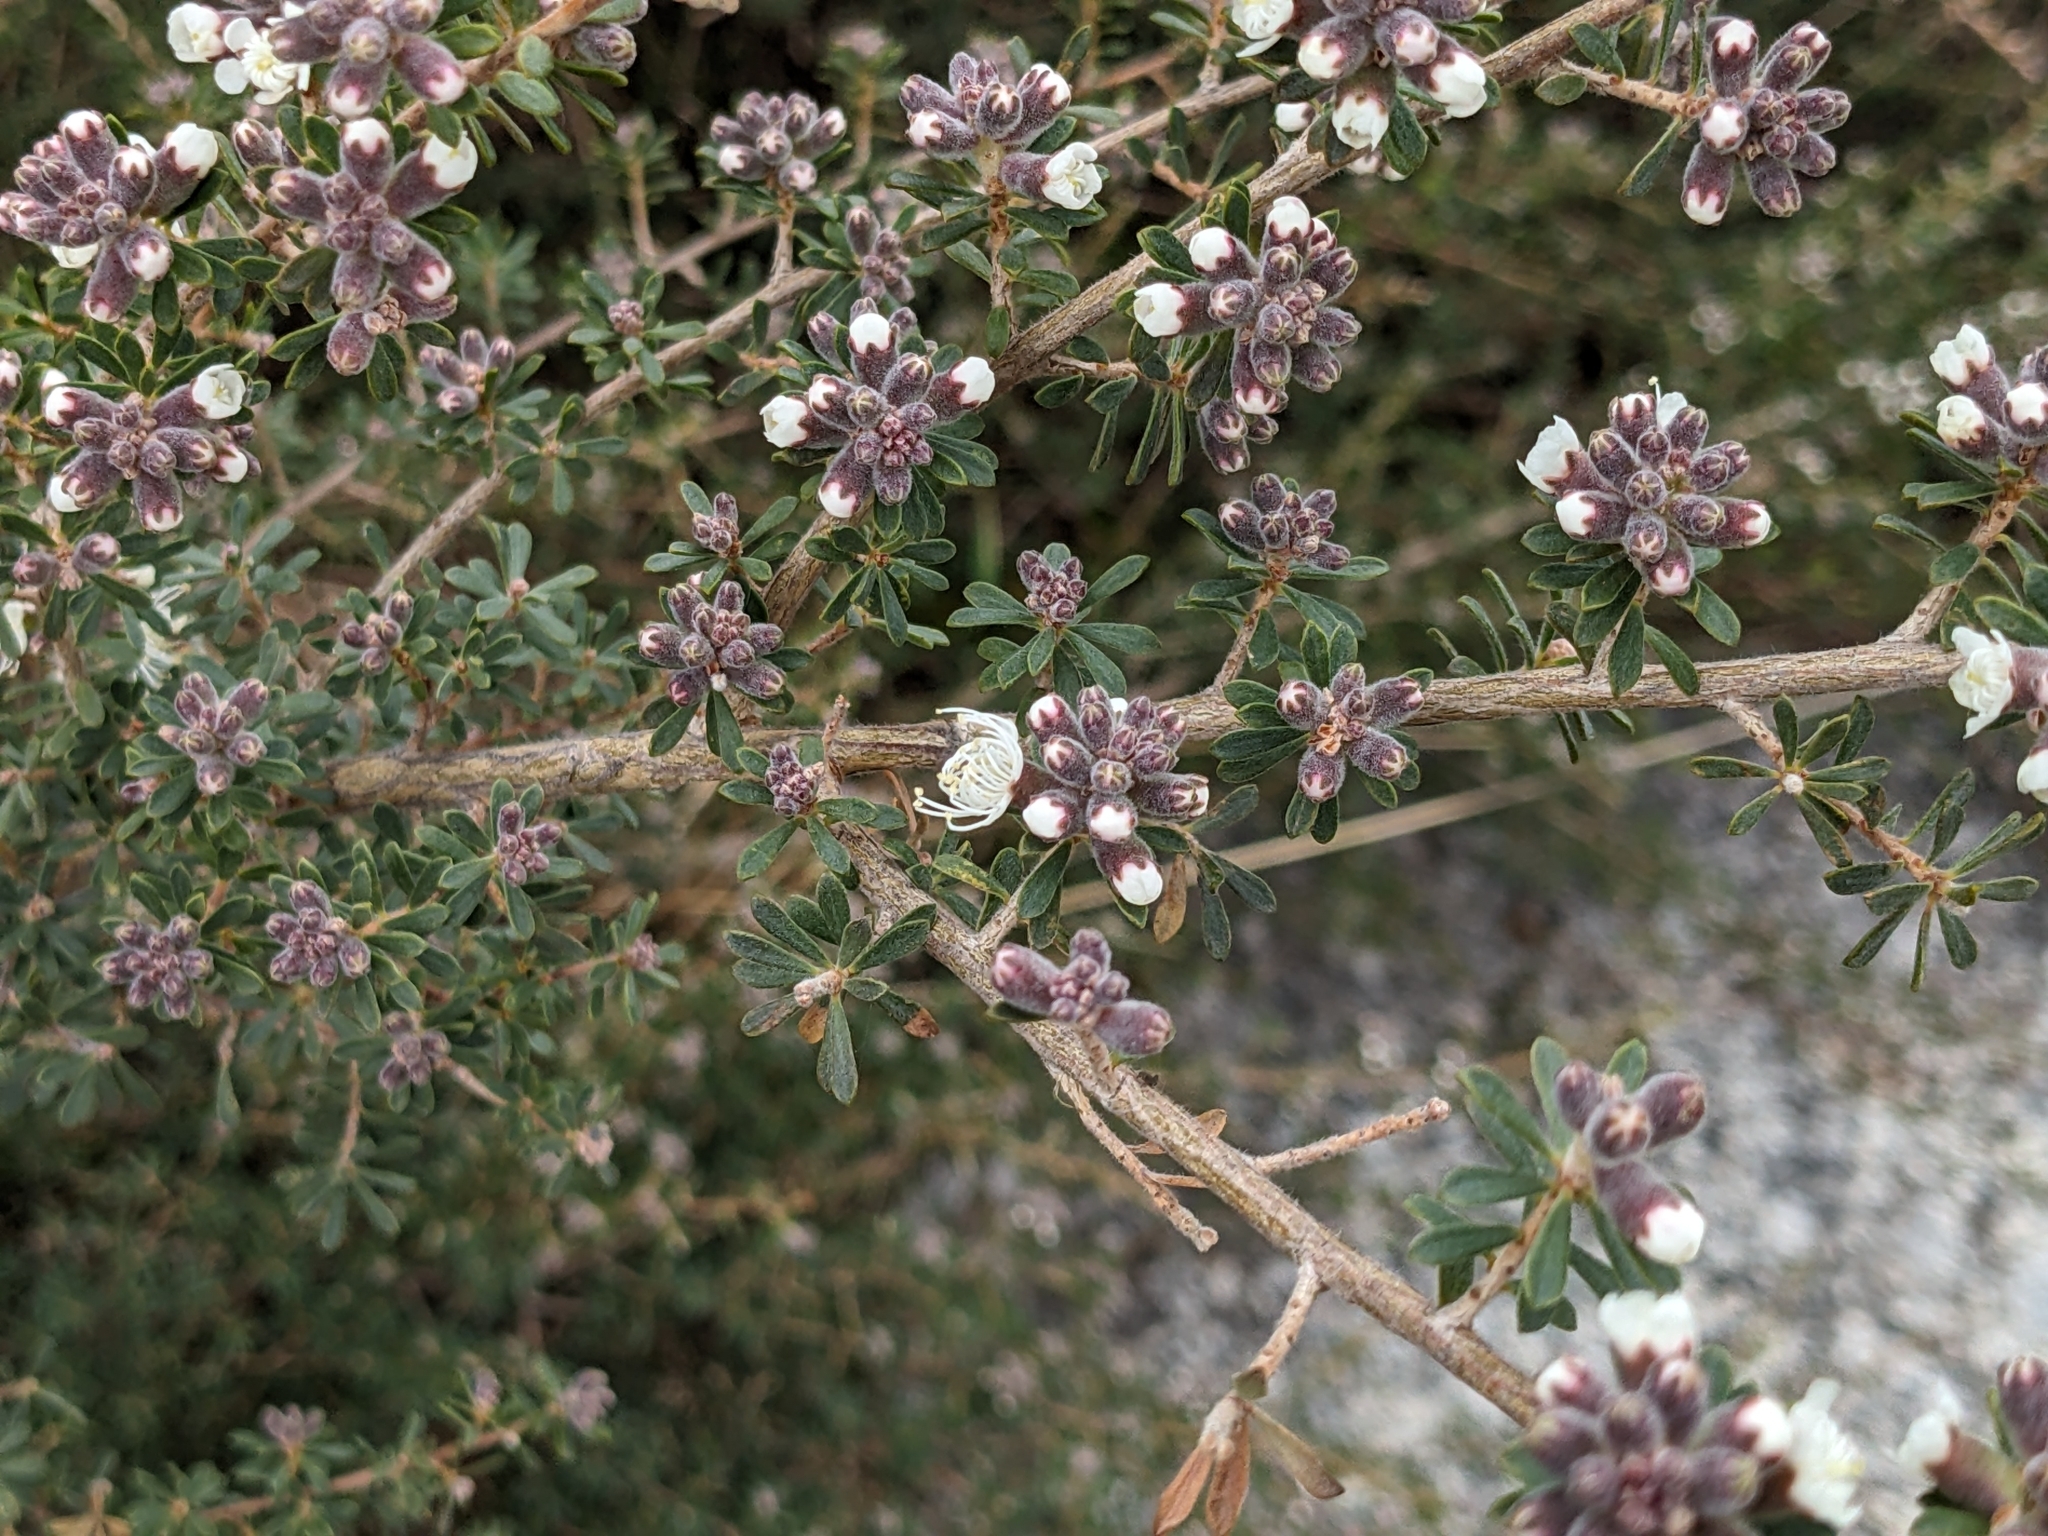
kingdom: Plantae
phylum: Tracheophyta
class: Magnoliopsida
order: Myrtales
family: Myrtaceae
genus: Kunzea
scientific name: Kunzea ambigua
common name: Tickbush
